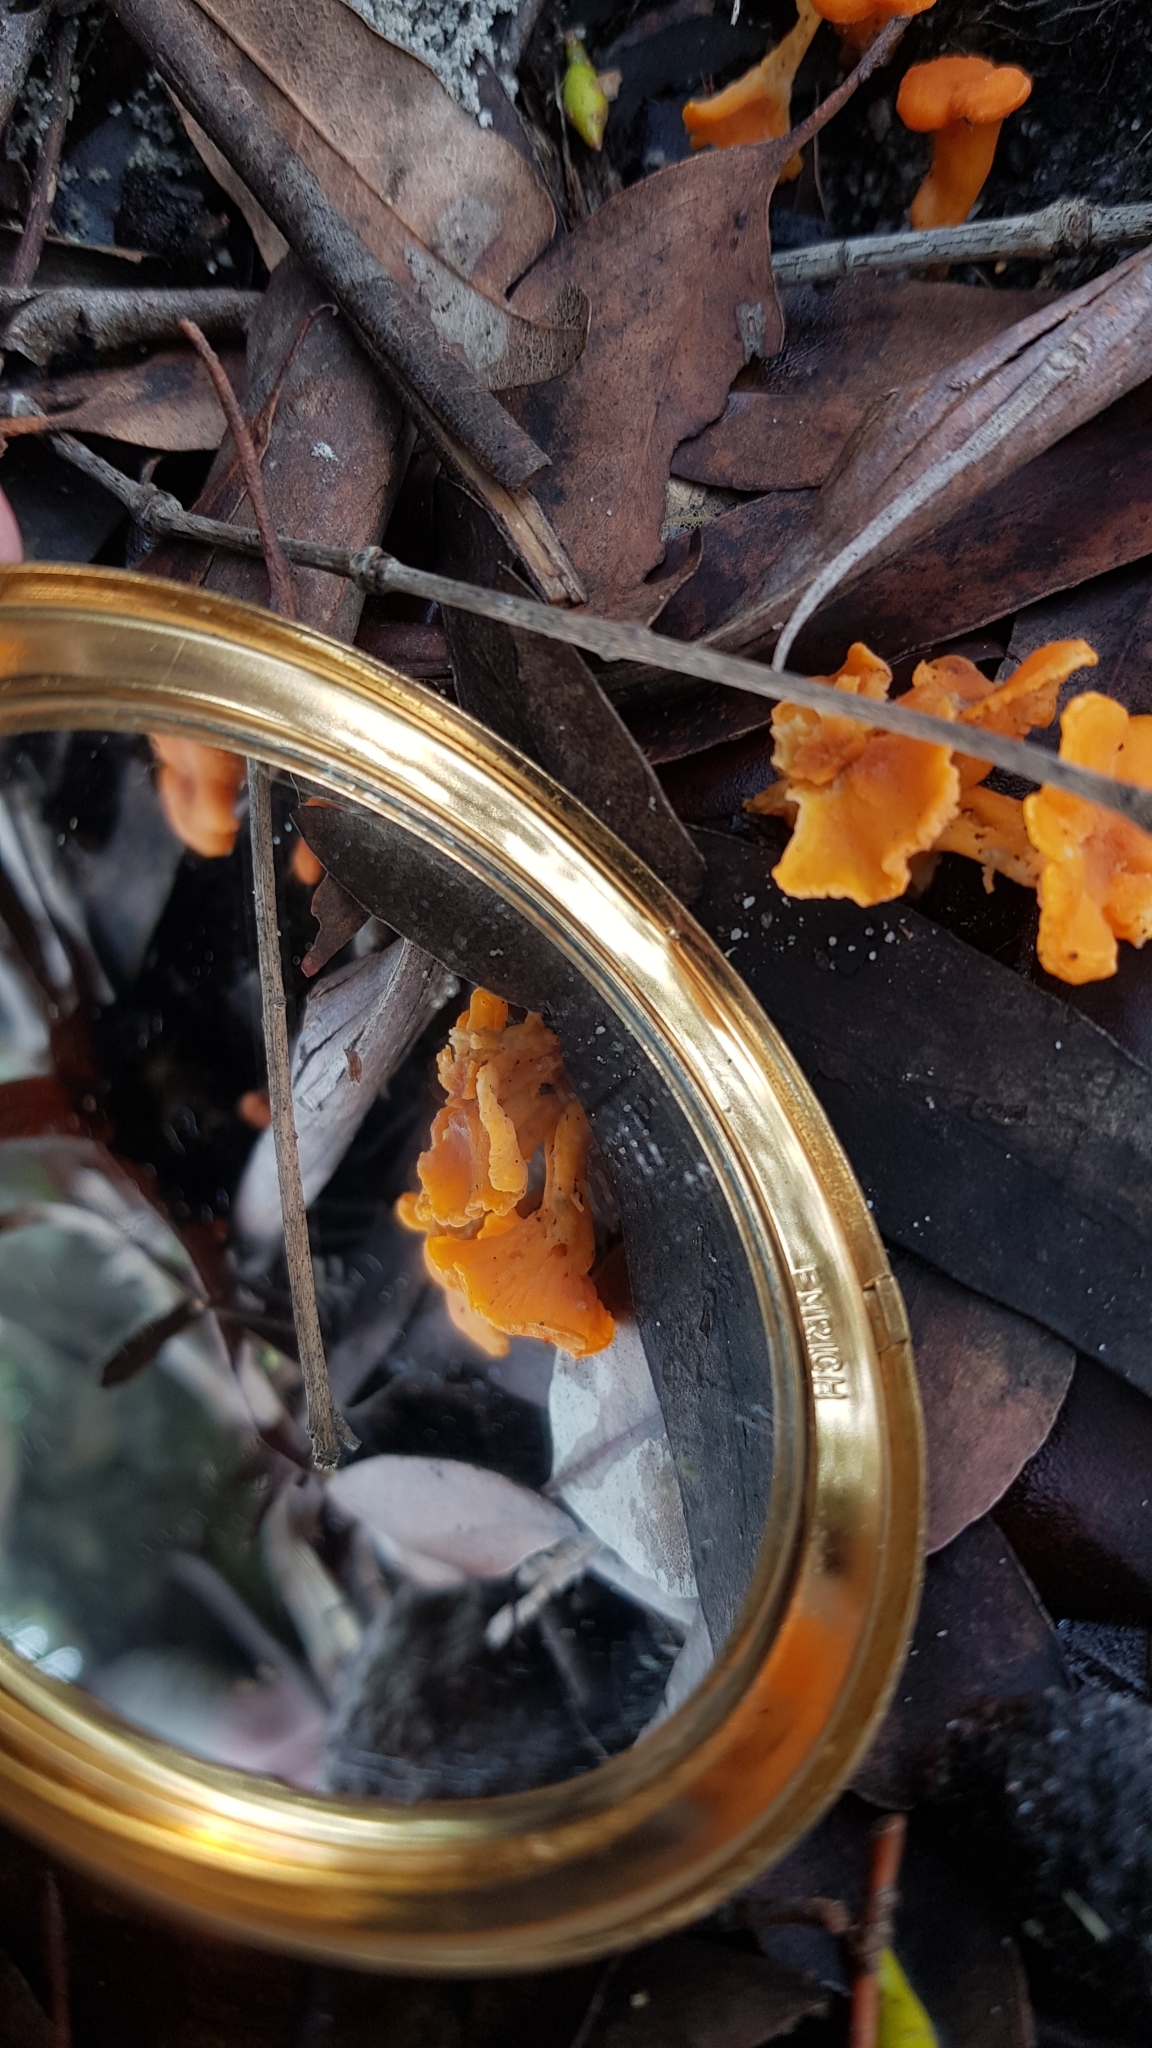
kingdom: Fungi
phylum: Basidiomycota
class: Agaricomycetes
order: Cantharellales
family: Hydnaceae
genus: Cantharellus
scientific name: Cantharellus
